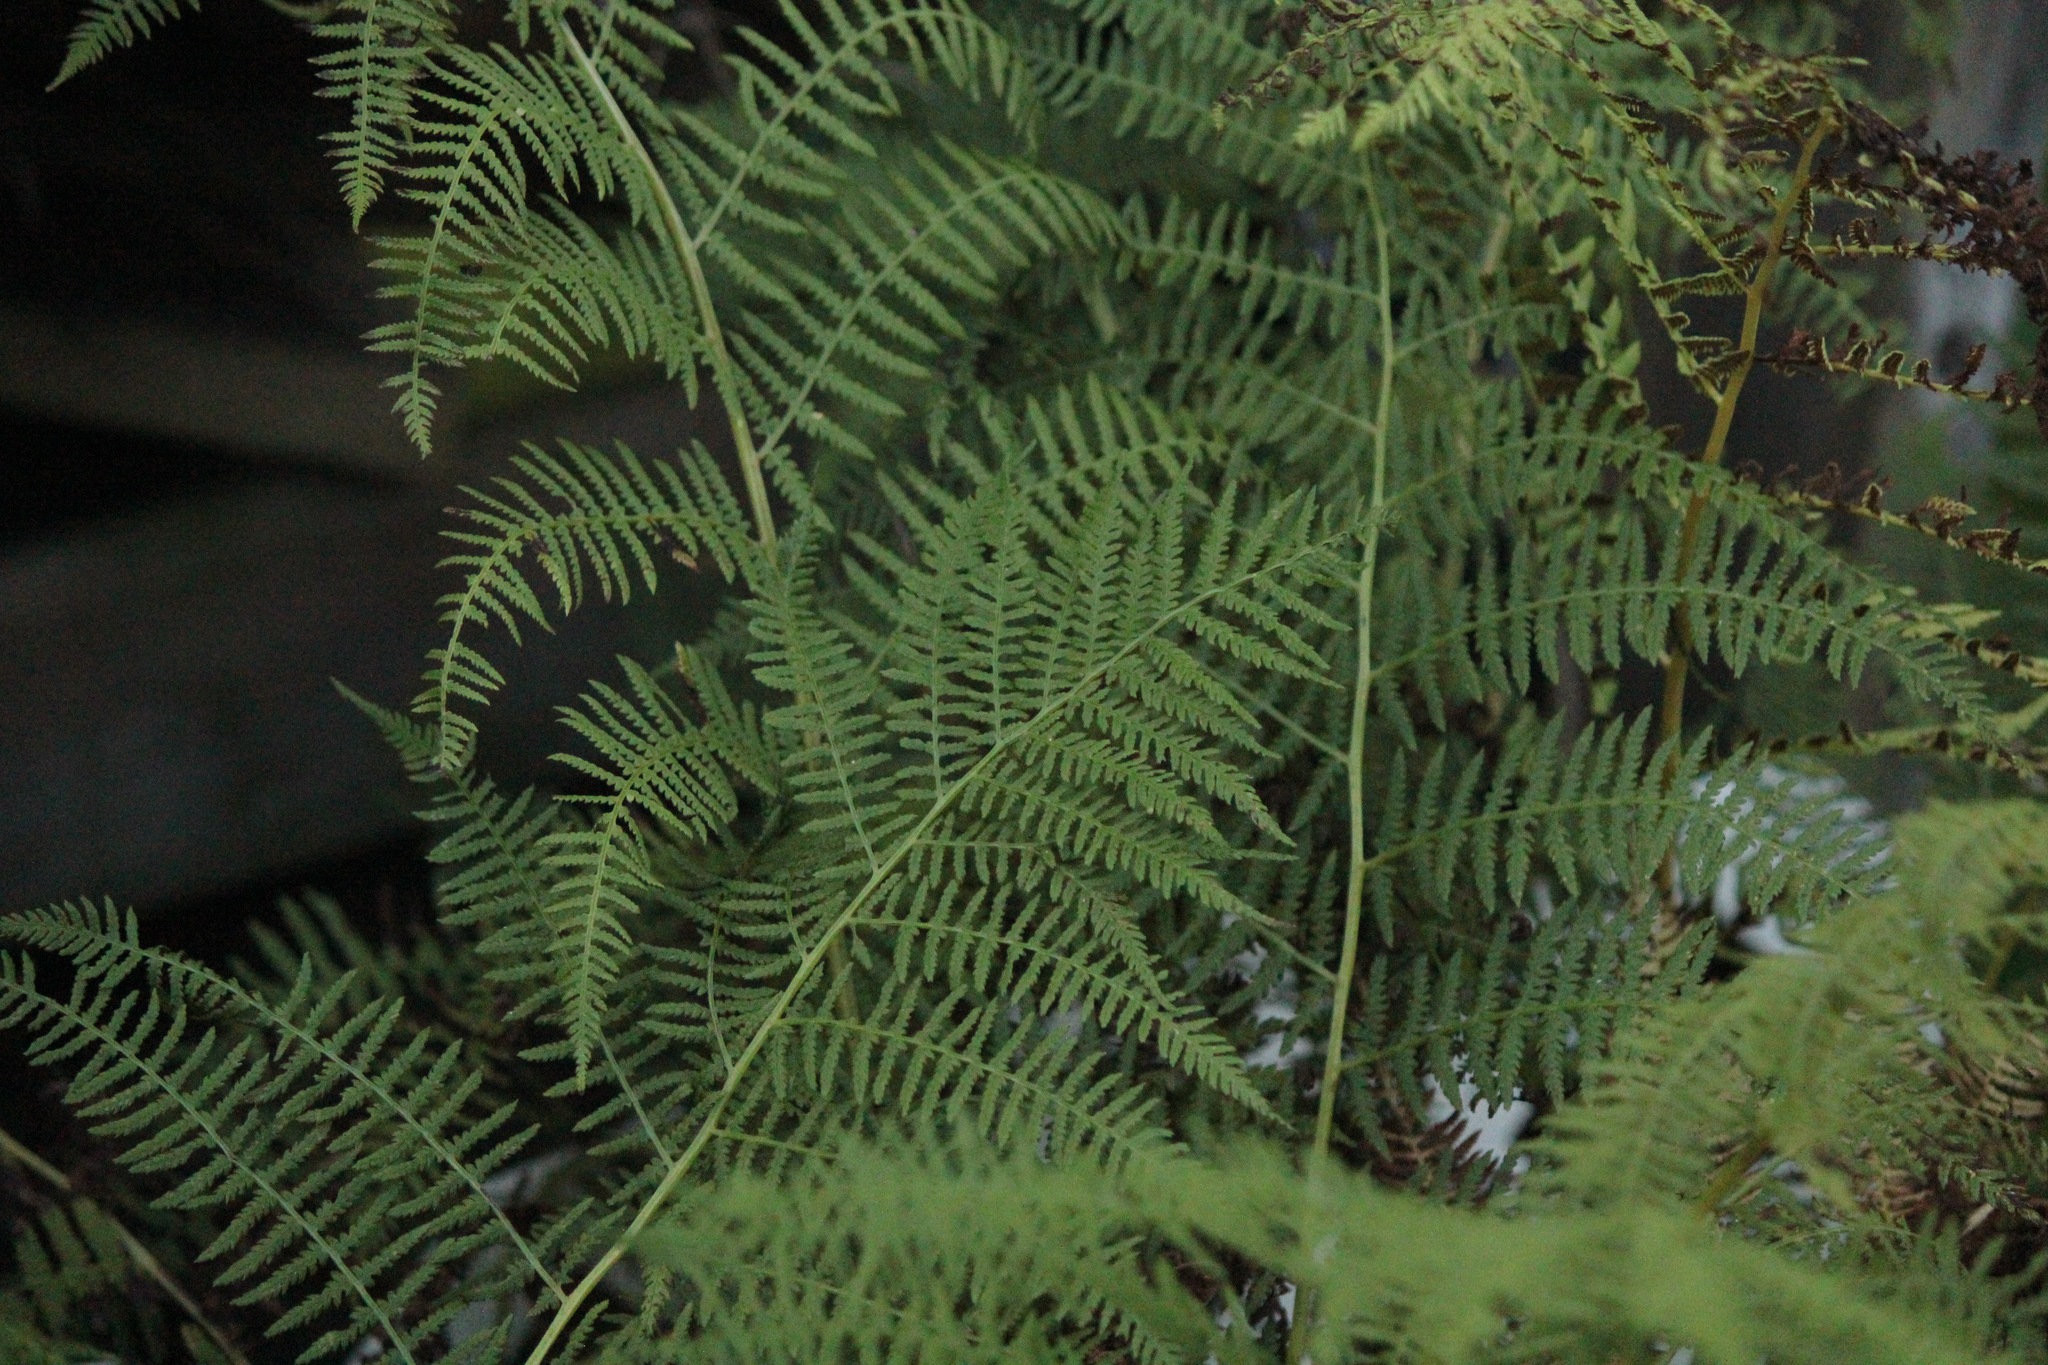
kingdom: Plantae
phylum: Tracheophyta
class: Polypodiopsida
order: Polypodiales
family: Athyriaceae
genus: Athyrium
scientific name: Athyrium angustum
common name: Northern lady fern
